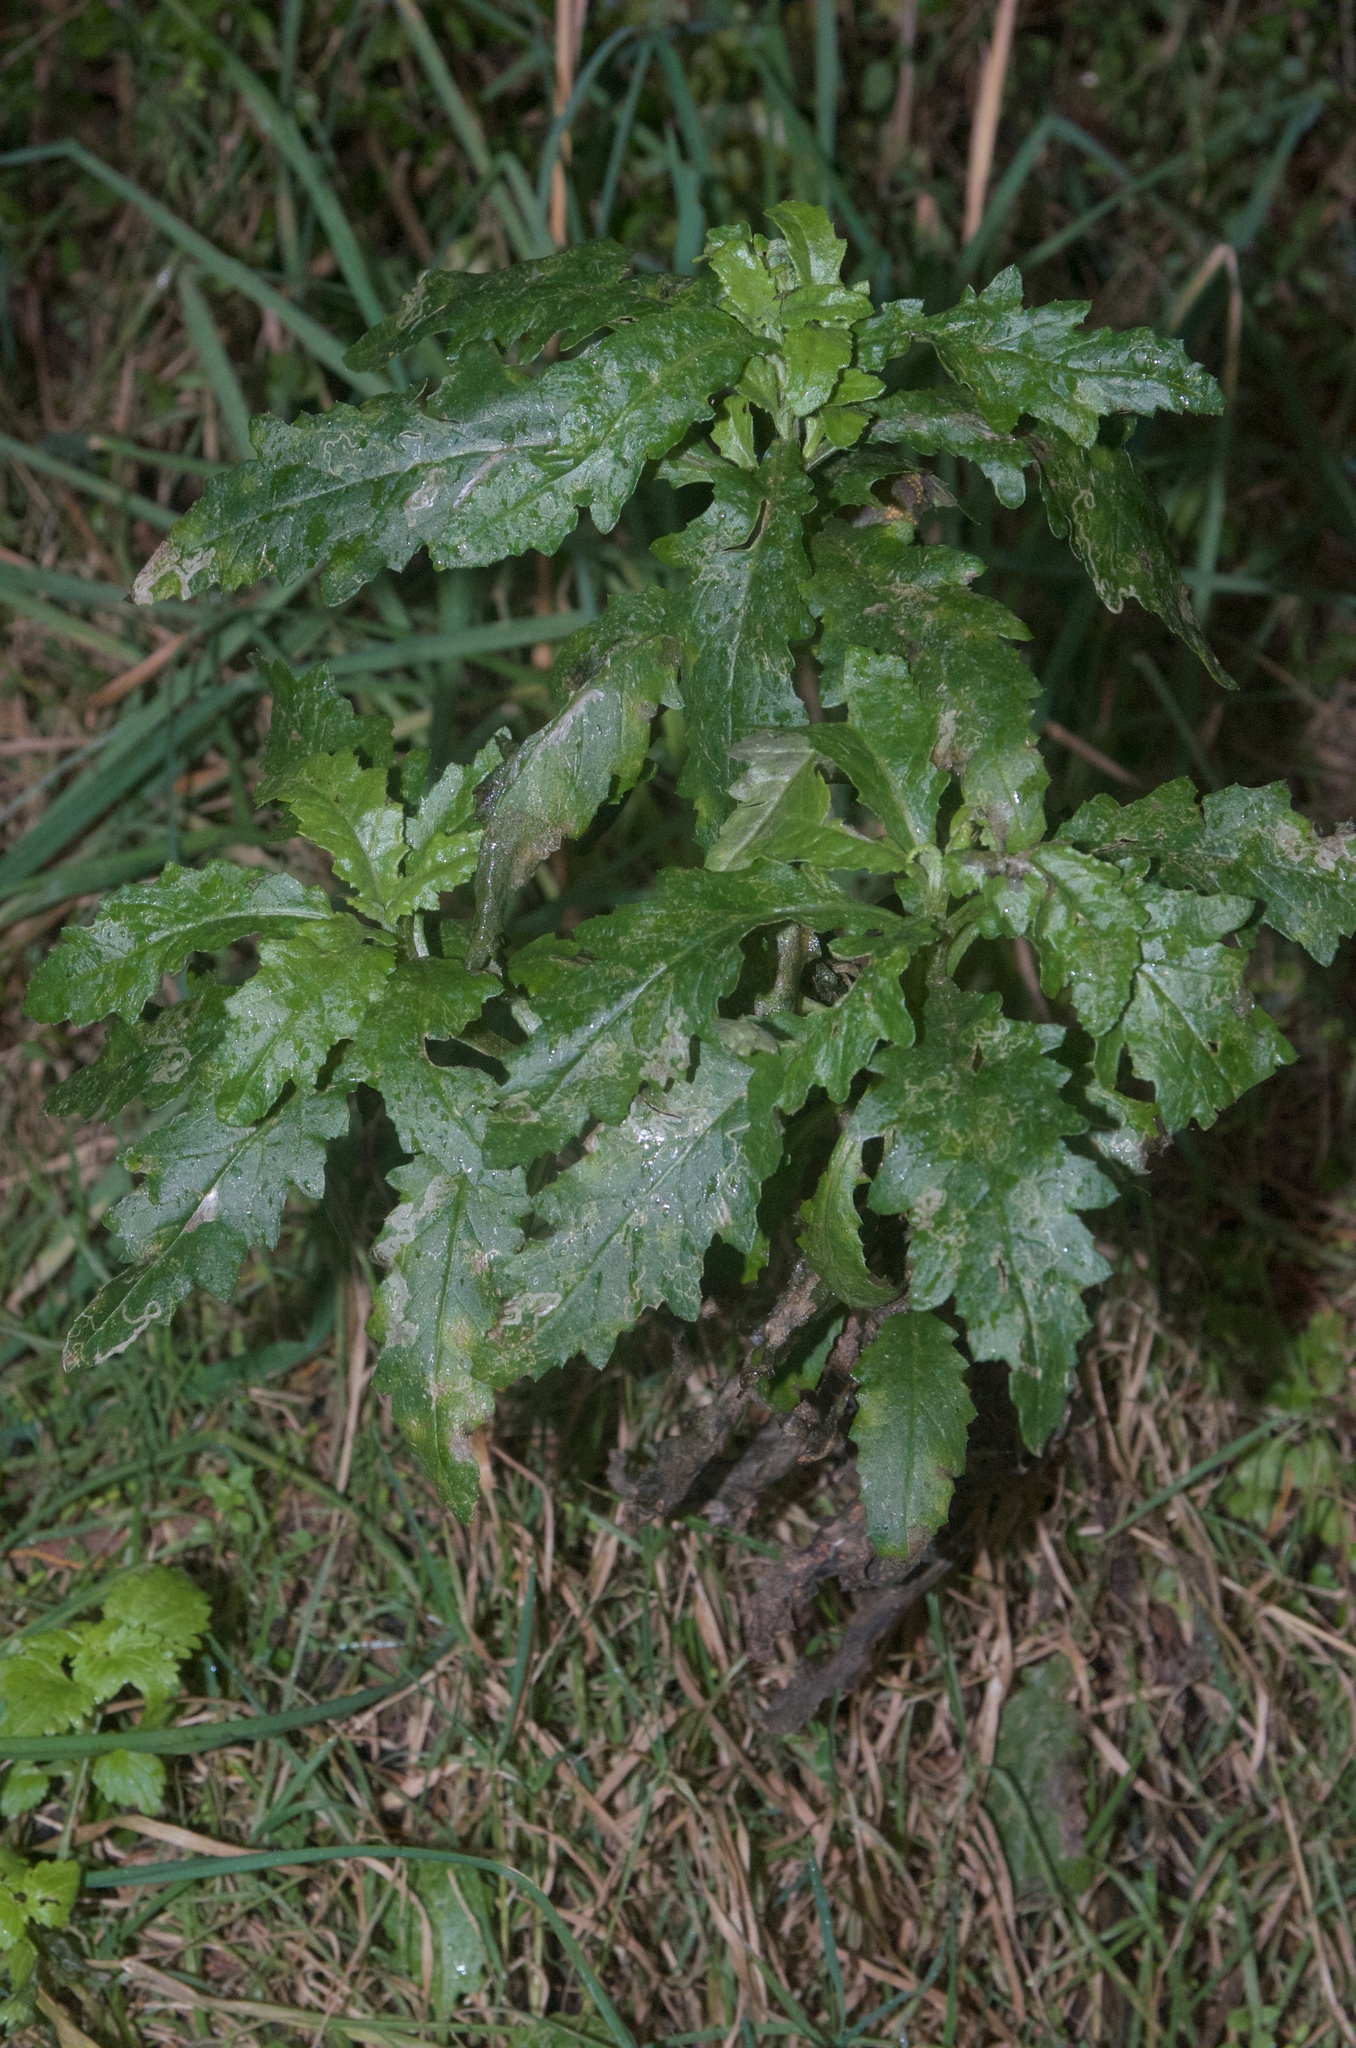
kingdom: Plantae
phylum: Tracheophyta
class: Magnoliopsida
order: Asterales
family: Asteraceae
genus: Senecio
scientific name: Senecio biserratus
